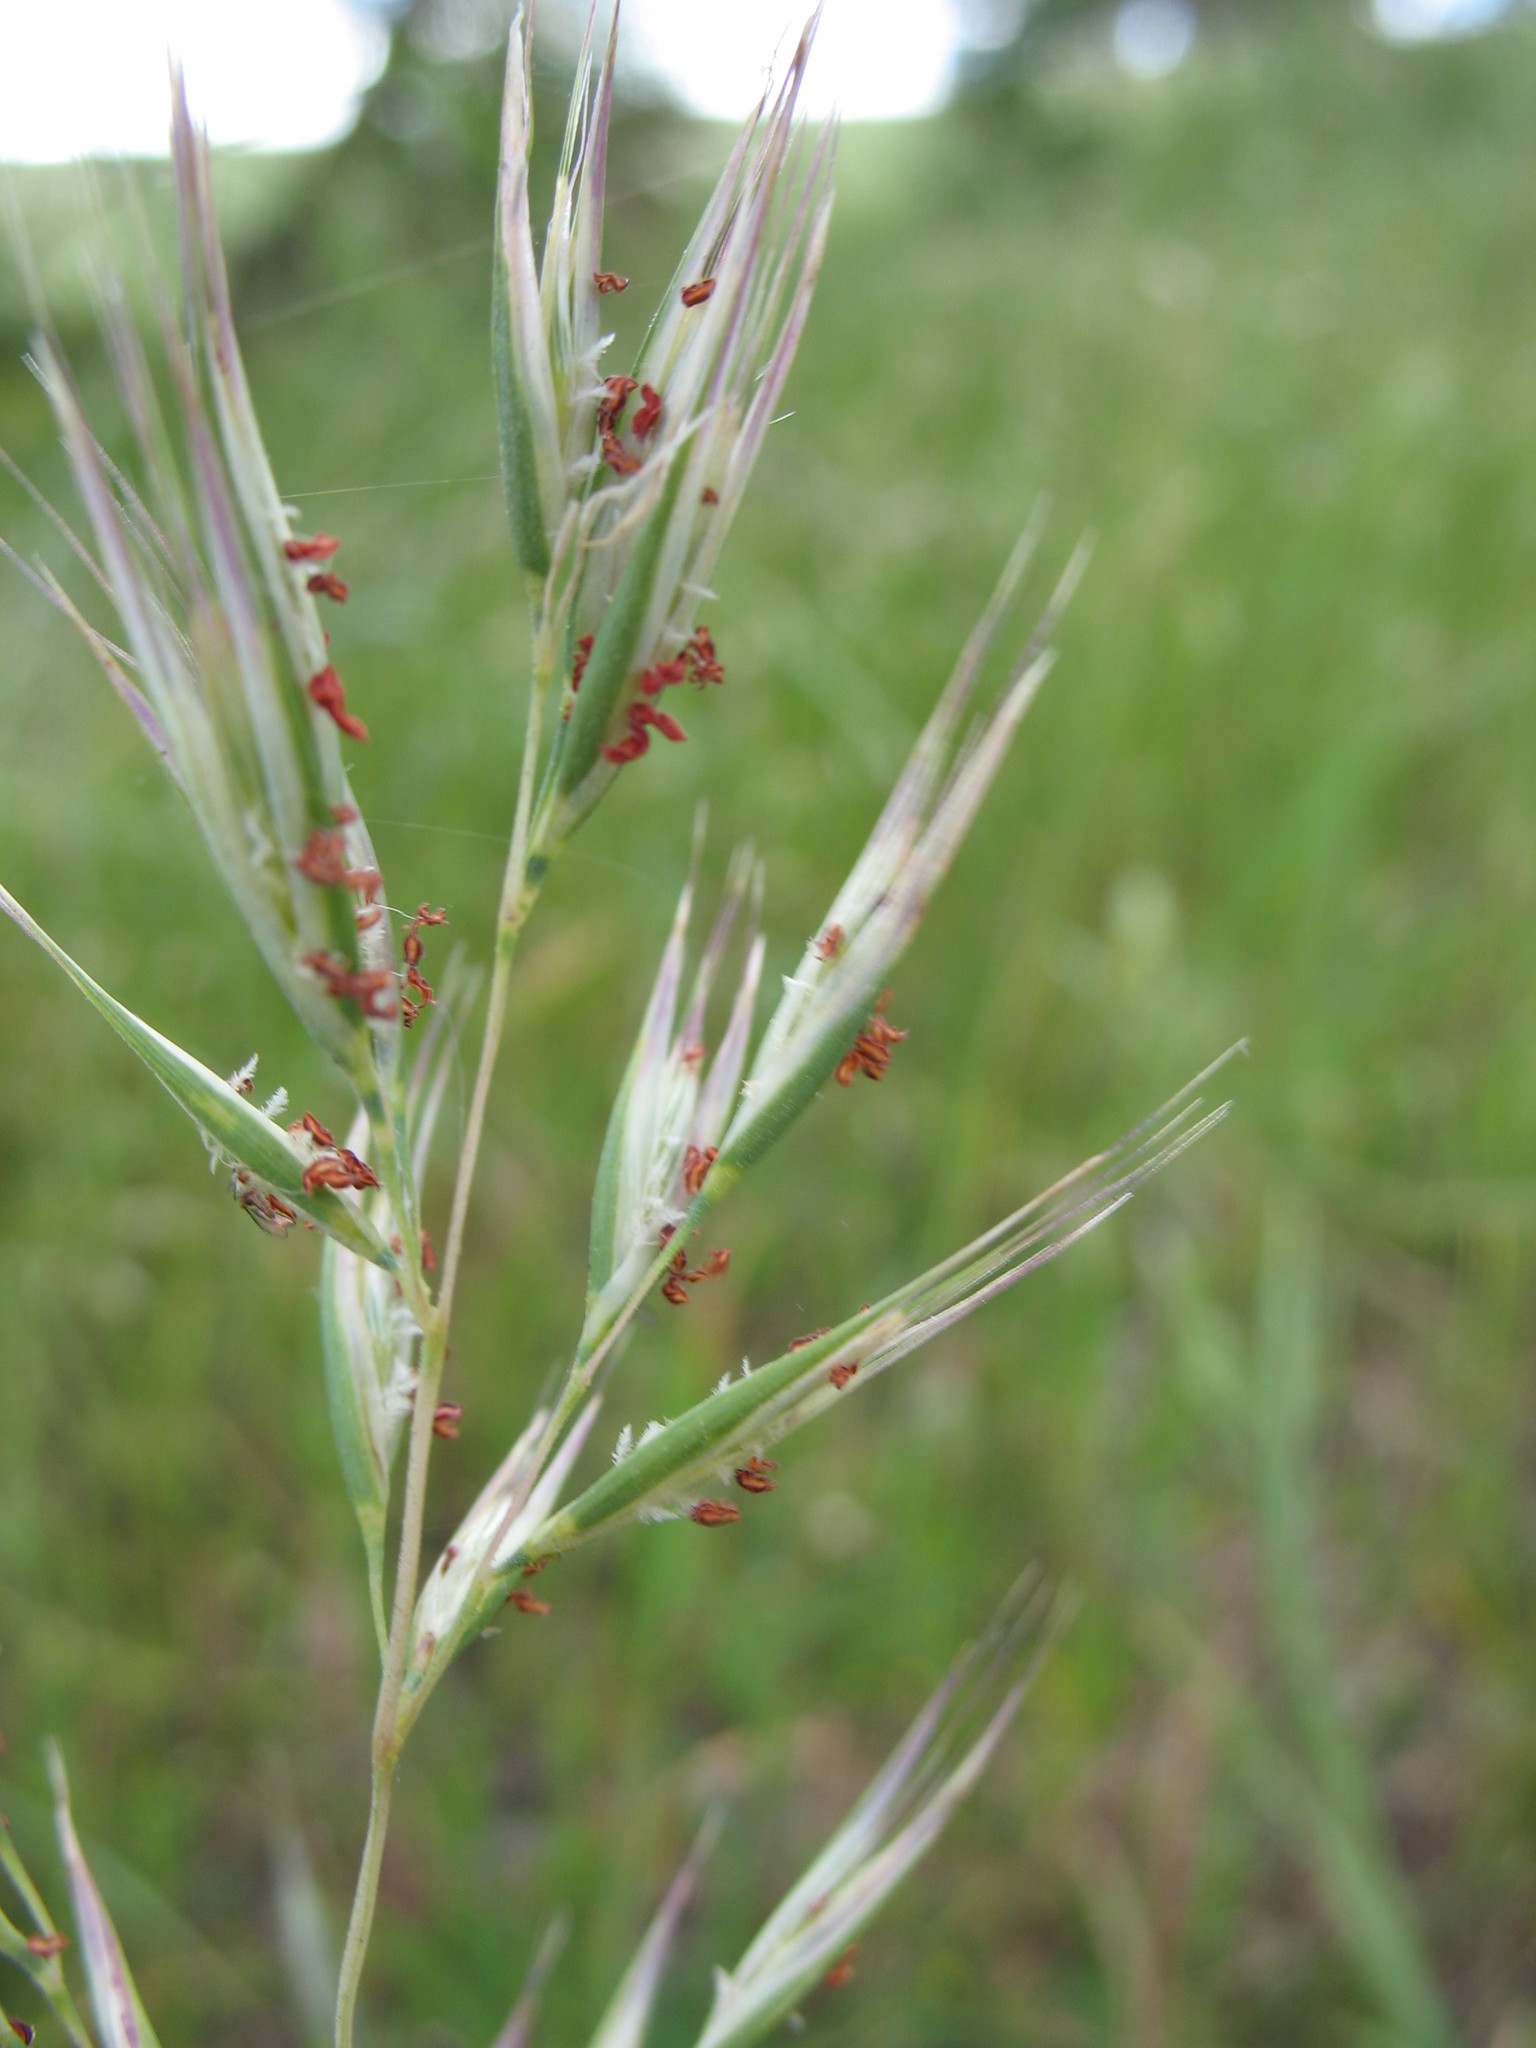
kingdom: Plantae
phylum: Tracheophyta
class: Liliopsida
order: Poales
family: Poaceae
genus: Rytidosperma
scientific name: Rytidosperma clelandii
